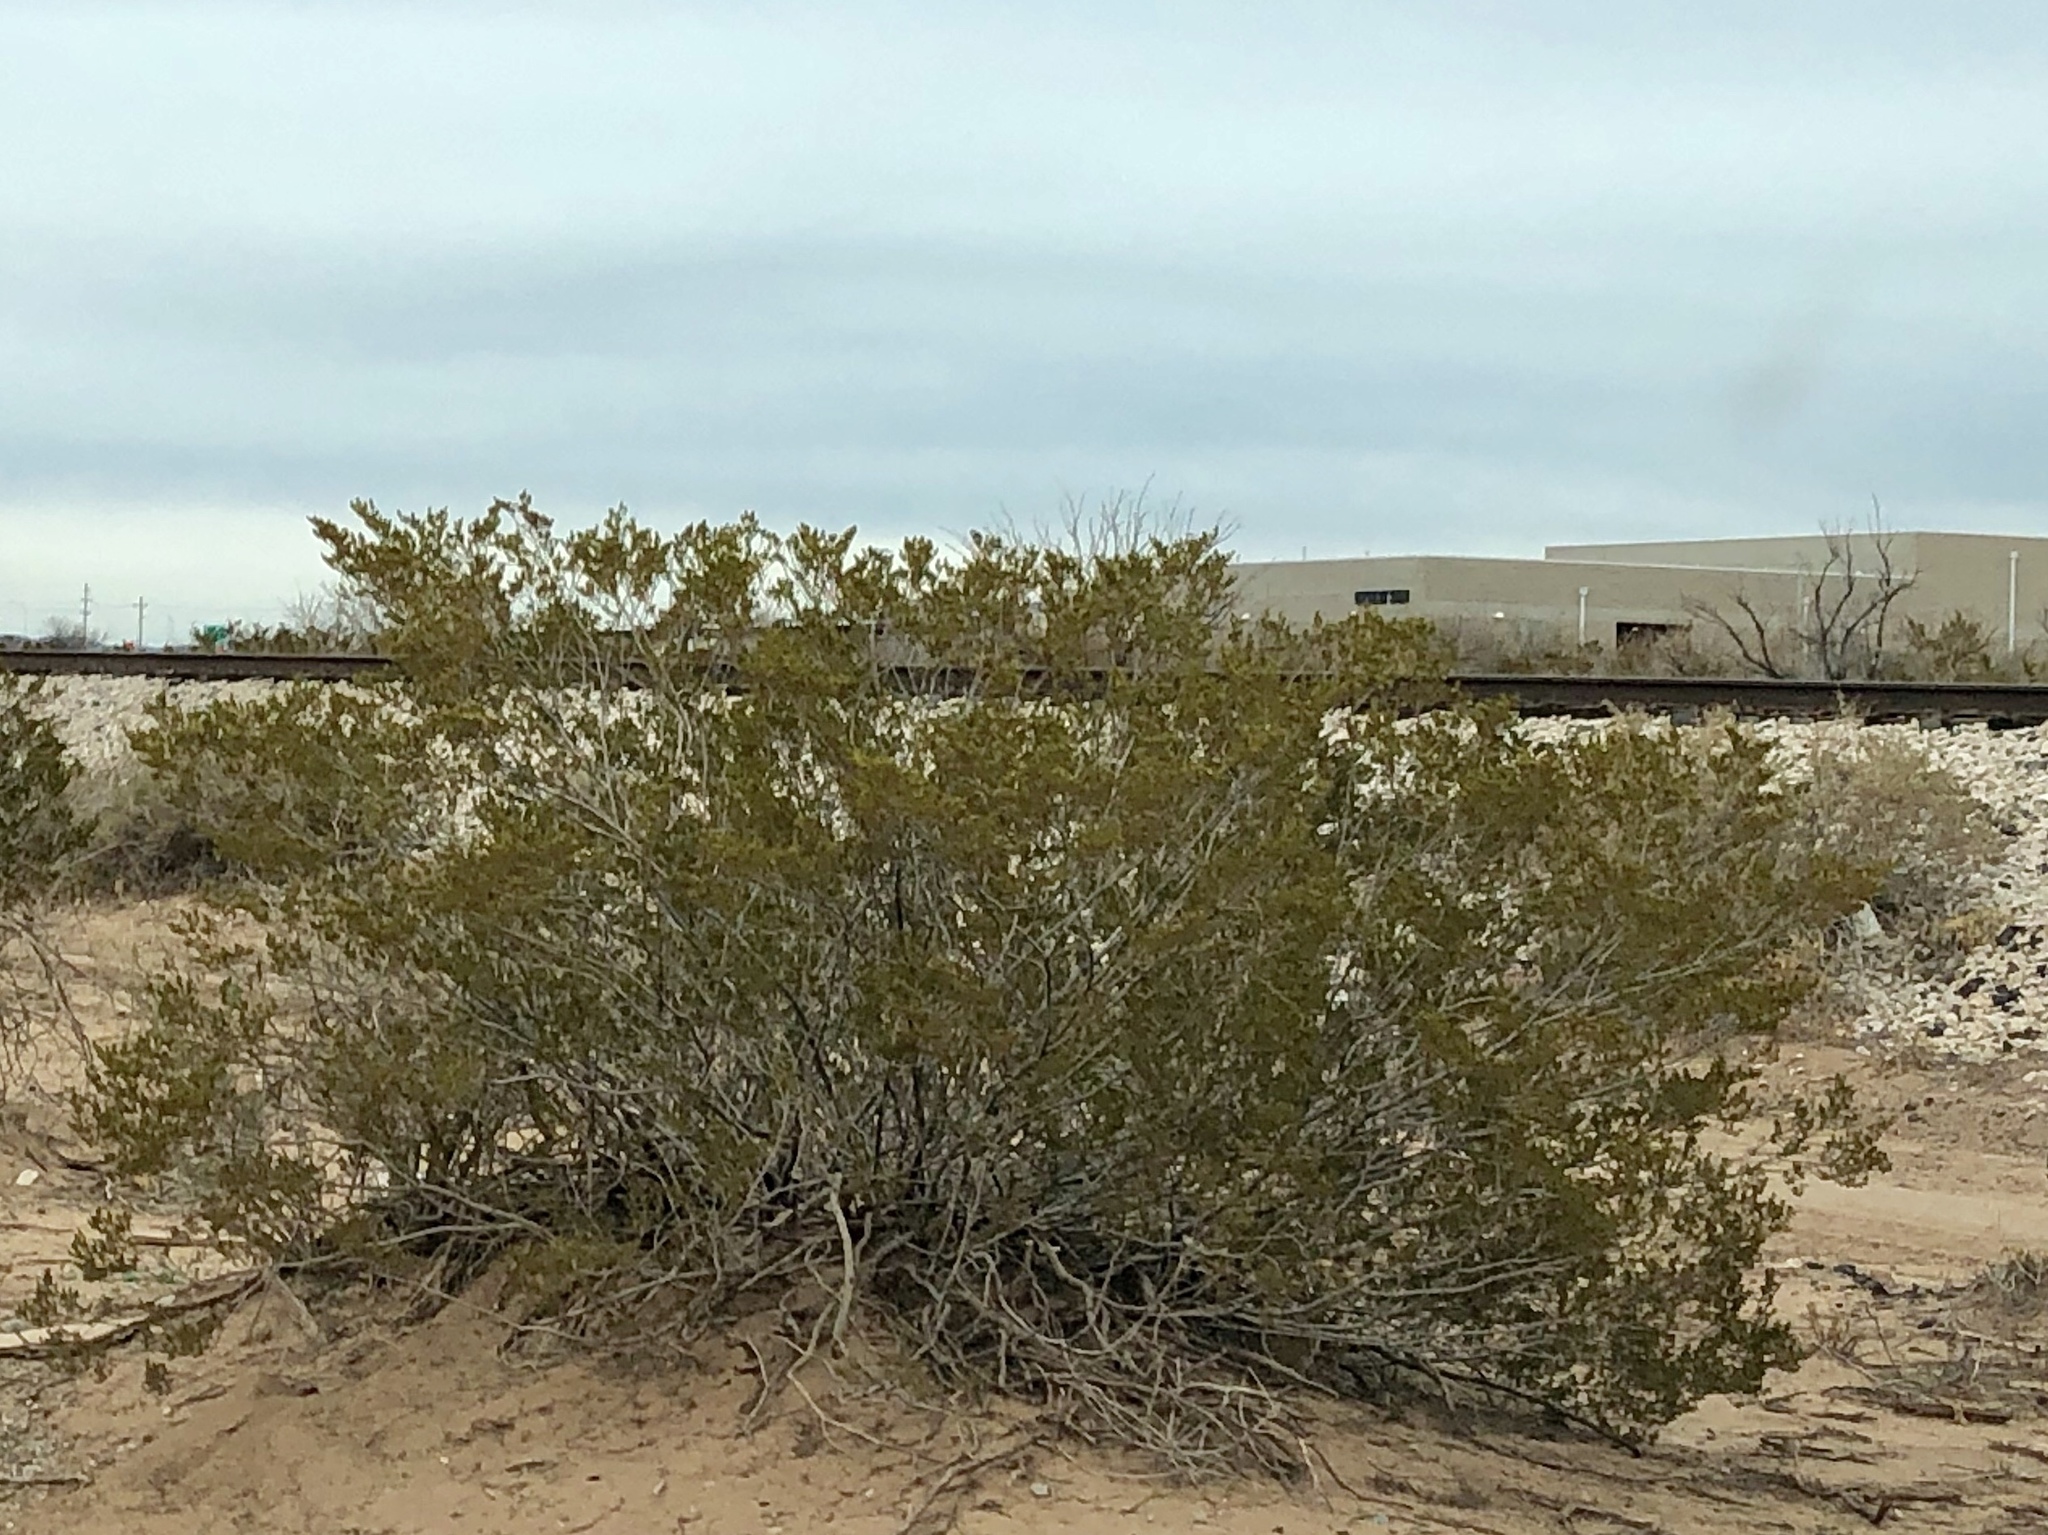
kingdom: Plantae
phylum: Tracheophyta
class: Magnoliopsida
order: Zygophyllales
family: Zygophyllaceae
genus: Larrea
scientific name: Larrea tridentata
